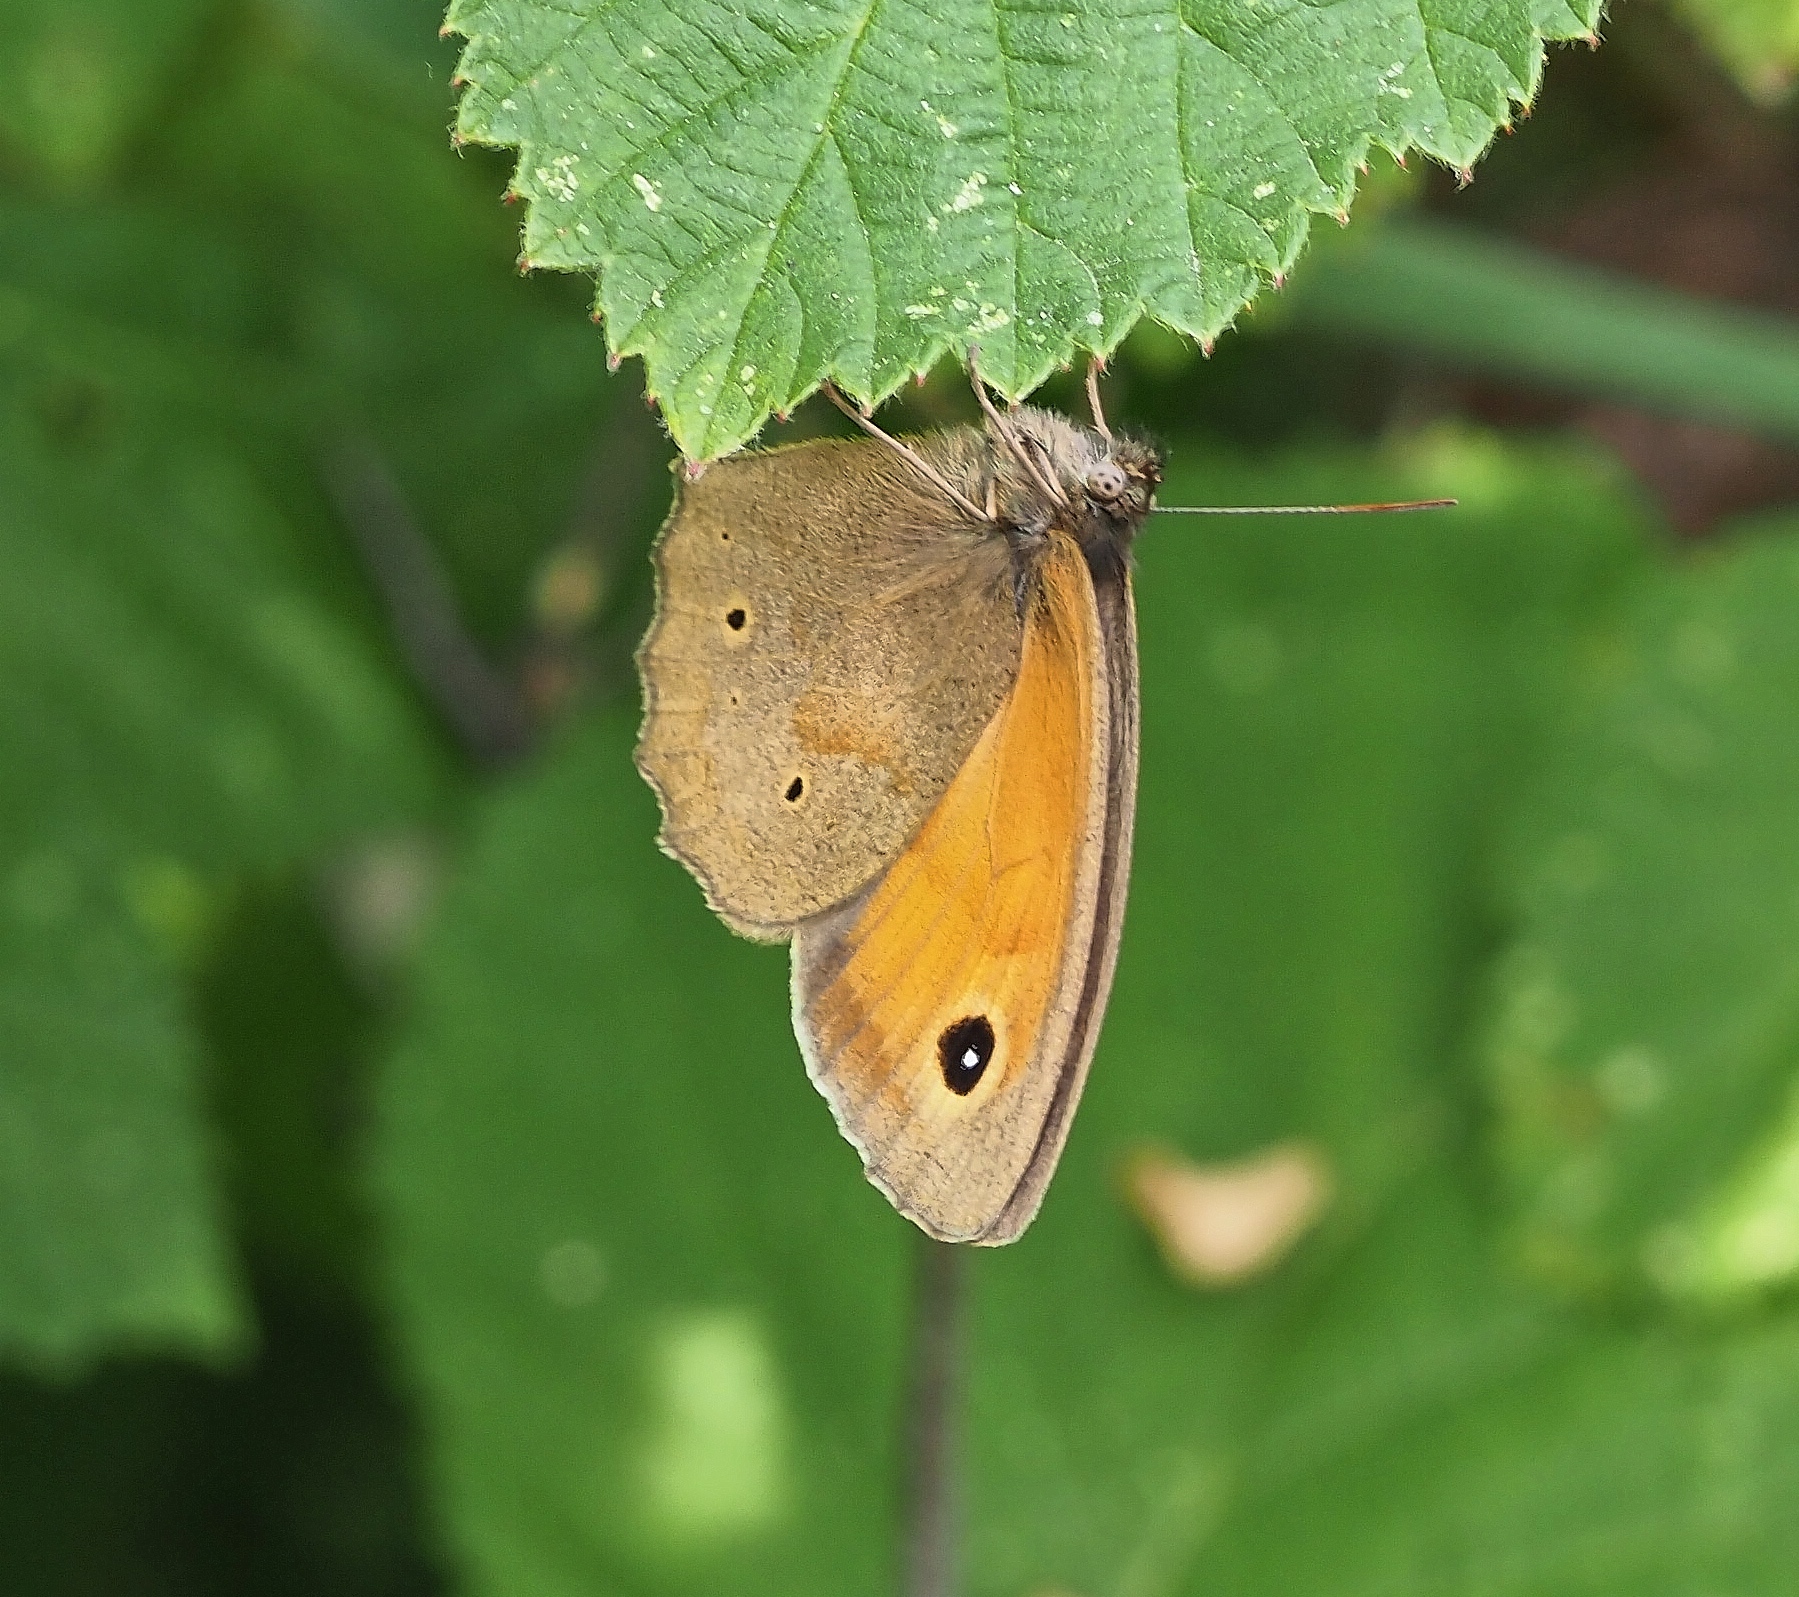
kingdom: Animalia
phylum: Arthropoda
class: Insecta
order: Lepidoptera
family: Nymphalidae
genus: Maniola
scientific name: Maniola jurtina
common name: Meadow brown
